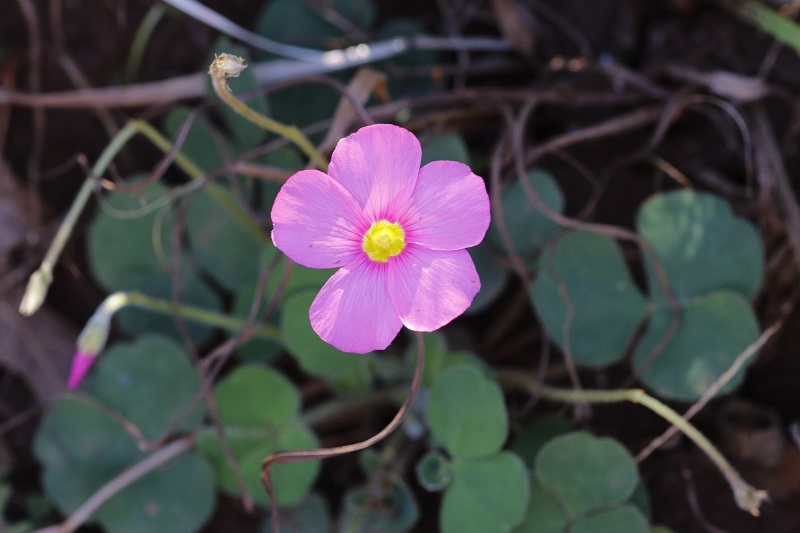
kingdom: Plantae
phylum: Tracheophyta
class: Magnoliopsida
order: Oxalidales
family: Oxalidaceae
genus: Oxalis
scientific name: Oxalis imbricata
